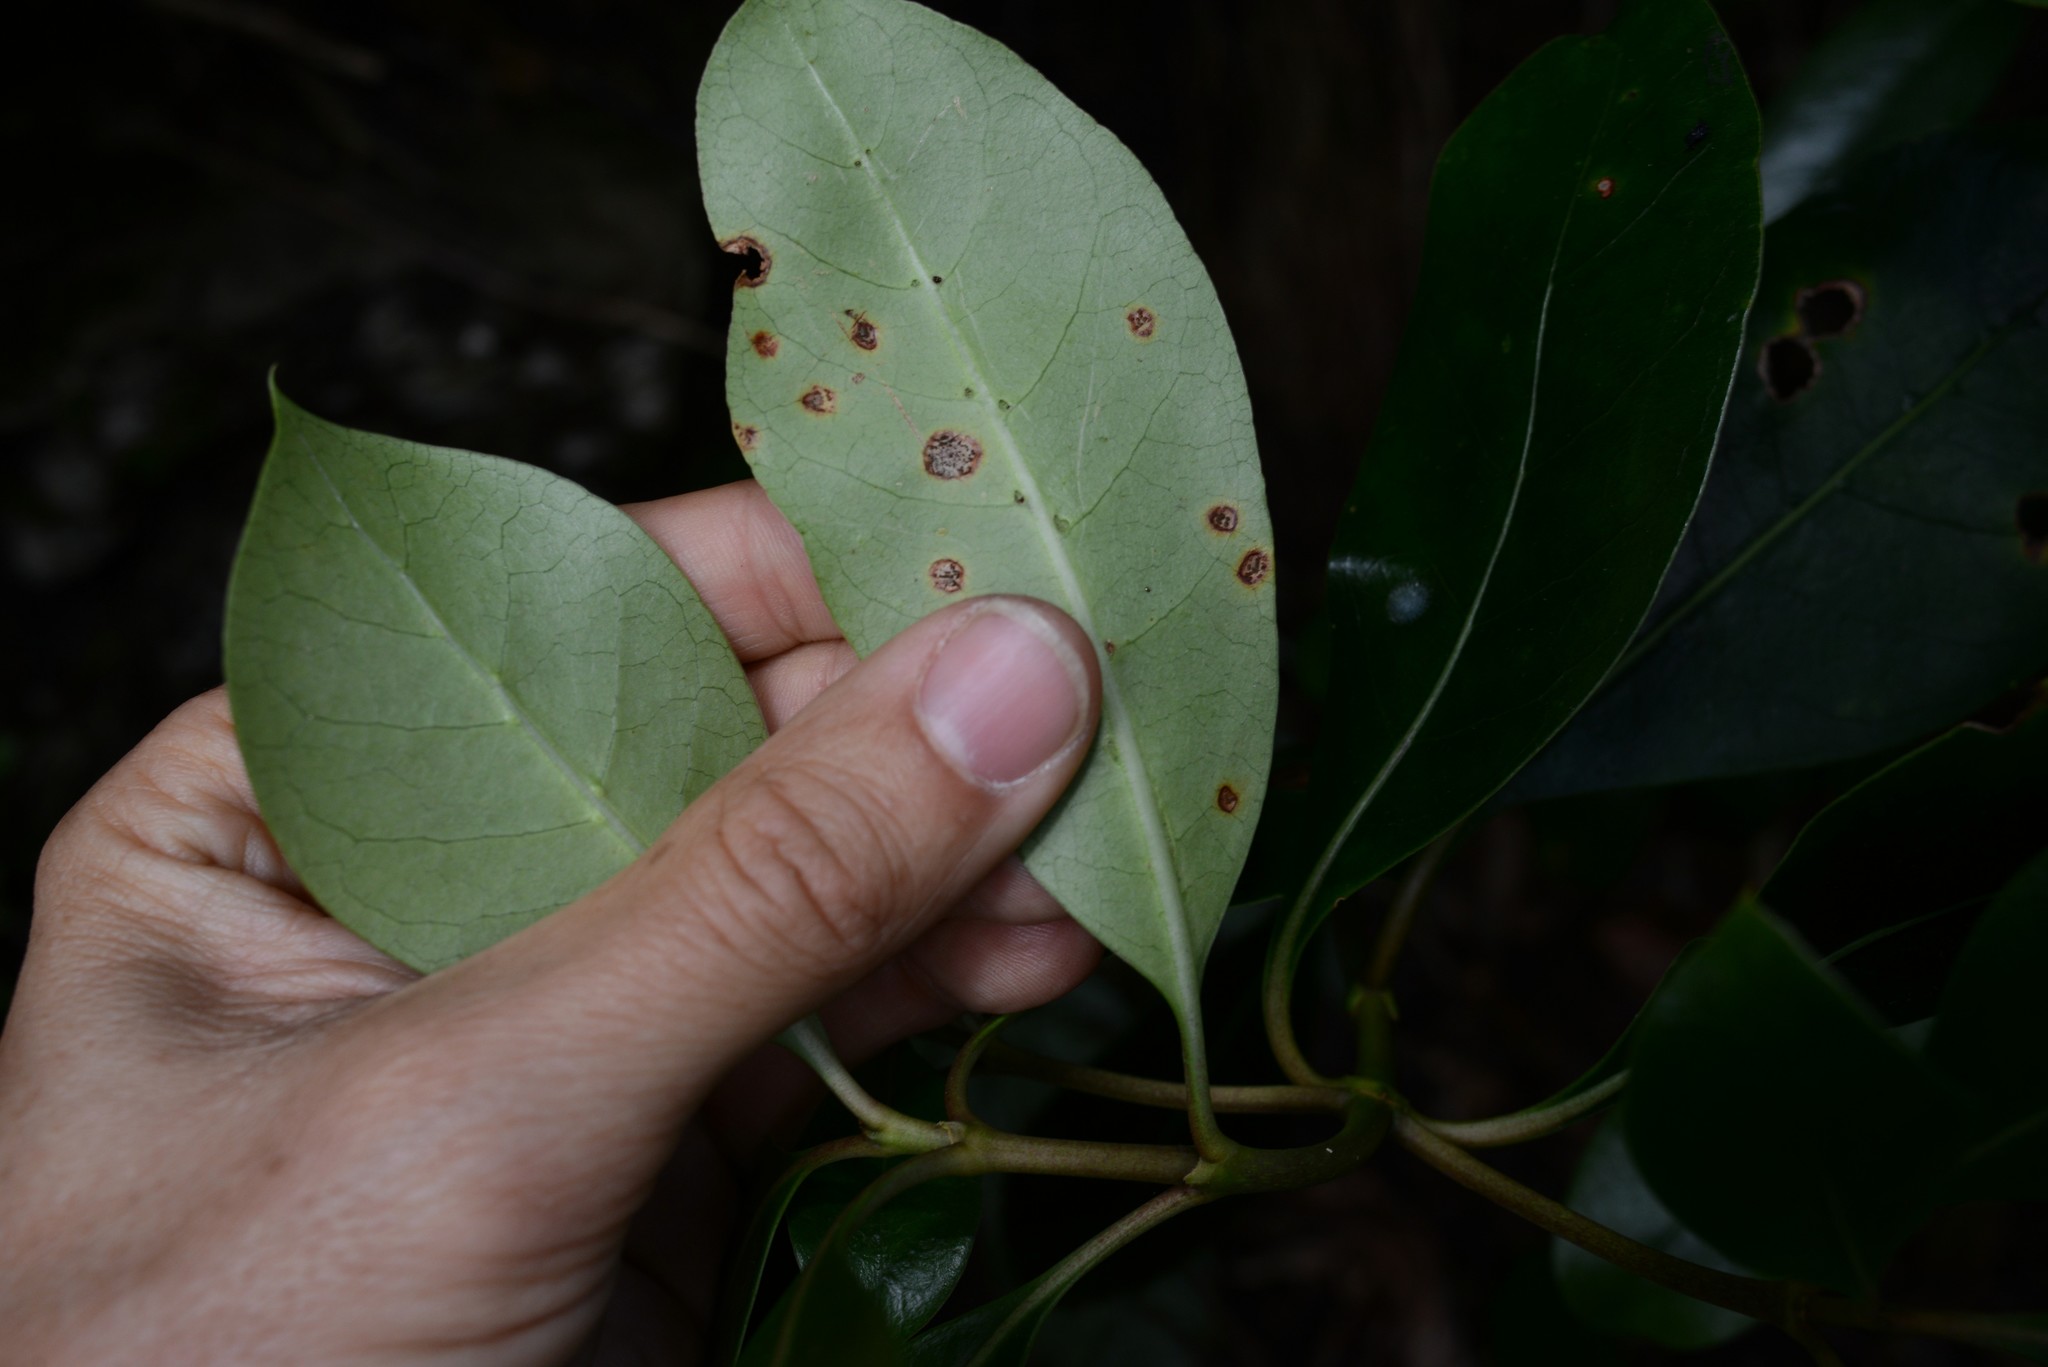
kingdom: Fungi
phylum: Basidiomycota
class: Pucciniomycetes
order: Pucciniales
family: Pucciniaceae
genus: Puccinia
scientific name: Puccinia coprosmae
